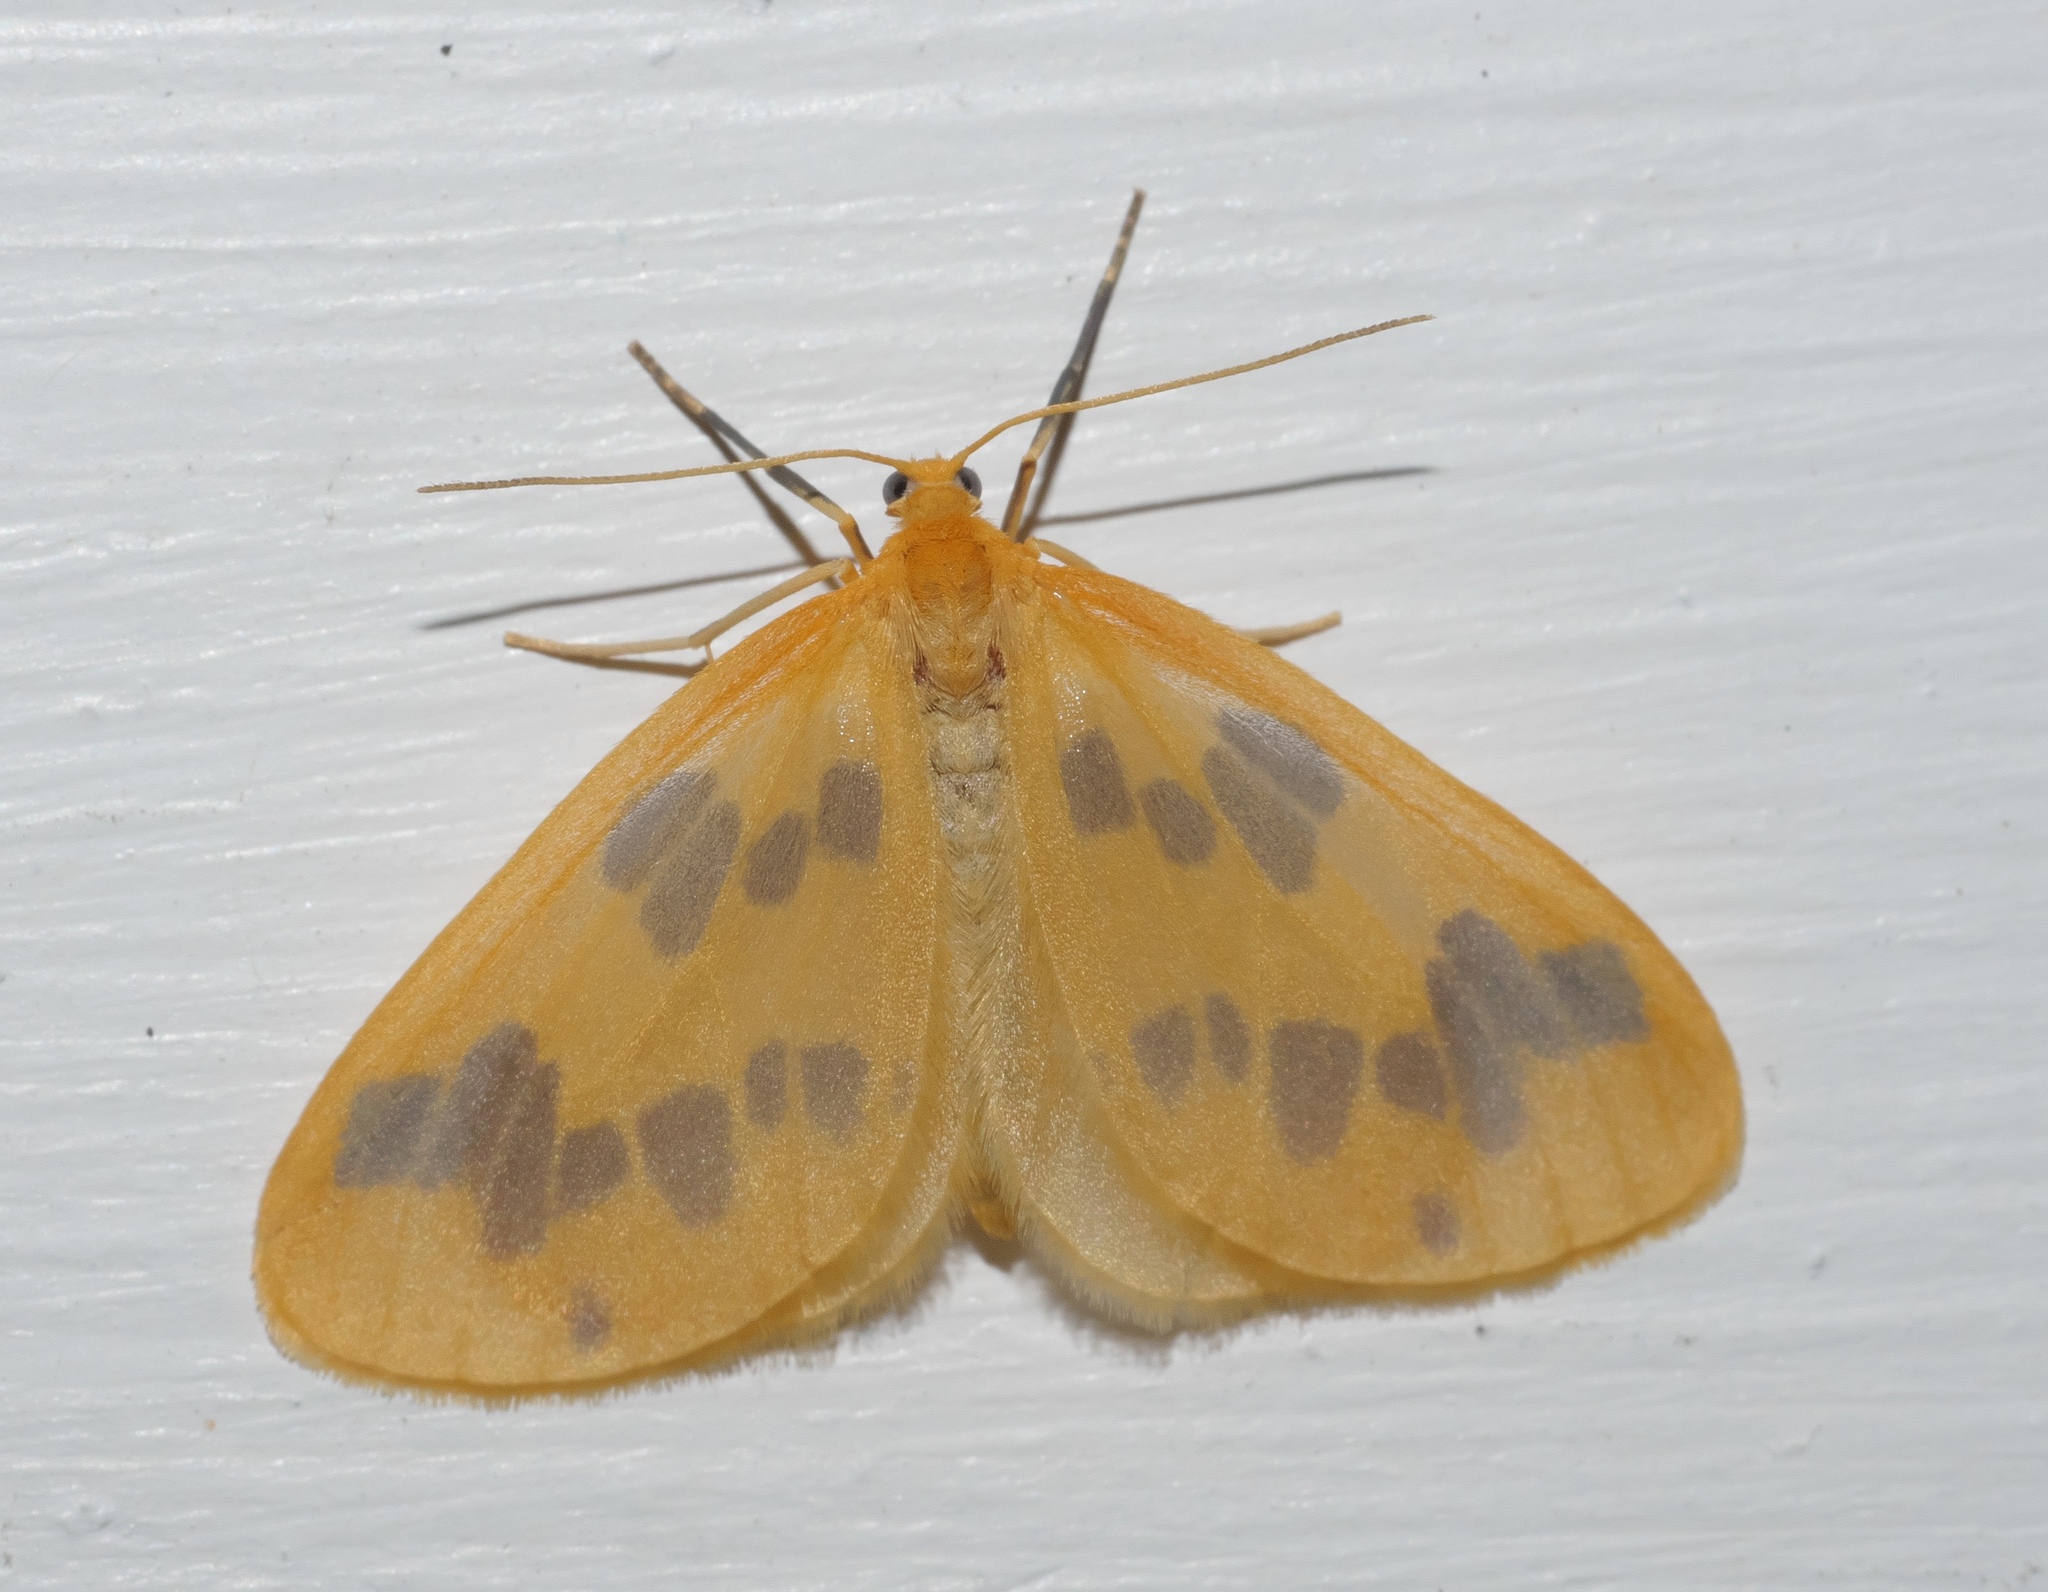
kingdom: Animalia
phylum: Arthropoda
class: Insecta
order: Lepidoptera
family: Geometridae
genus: Eubaphe
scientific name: Eubaphe mendica
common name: Beggar
